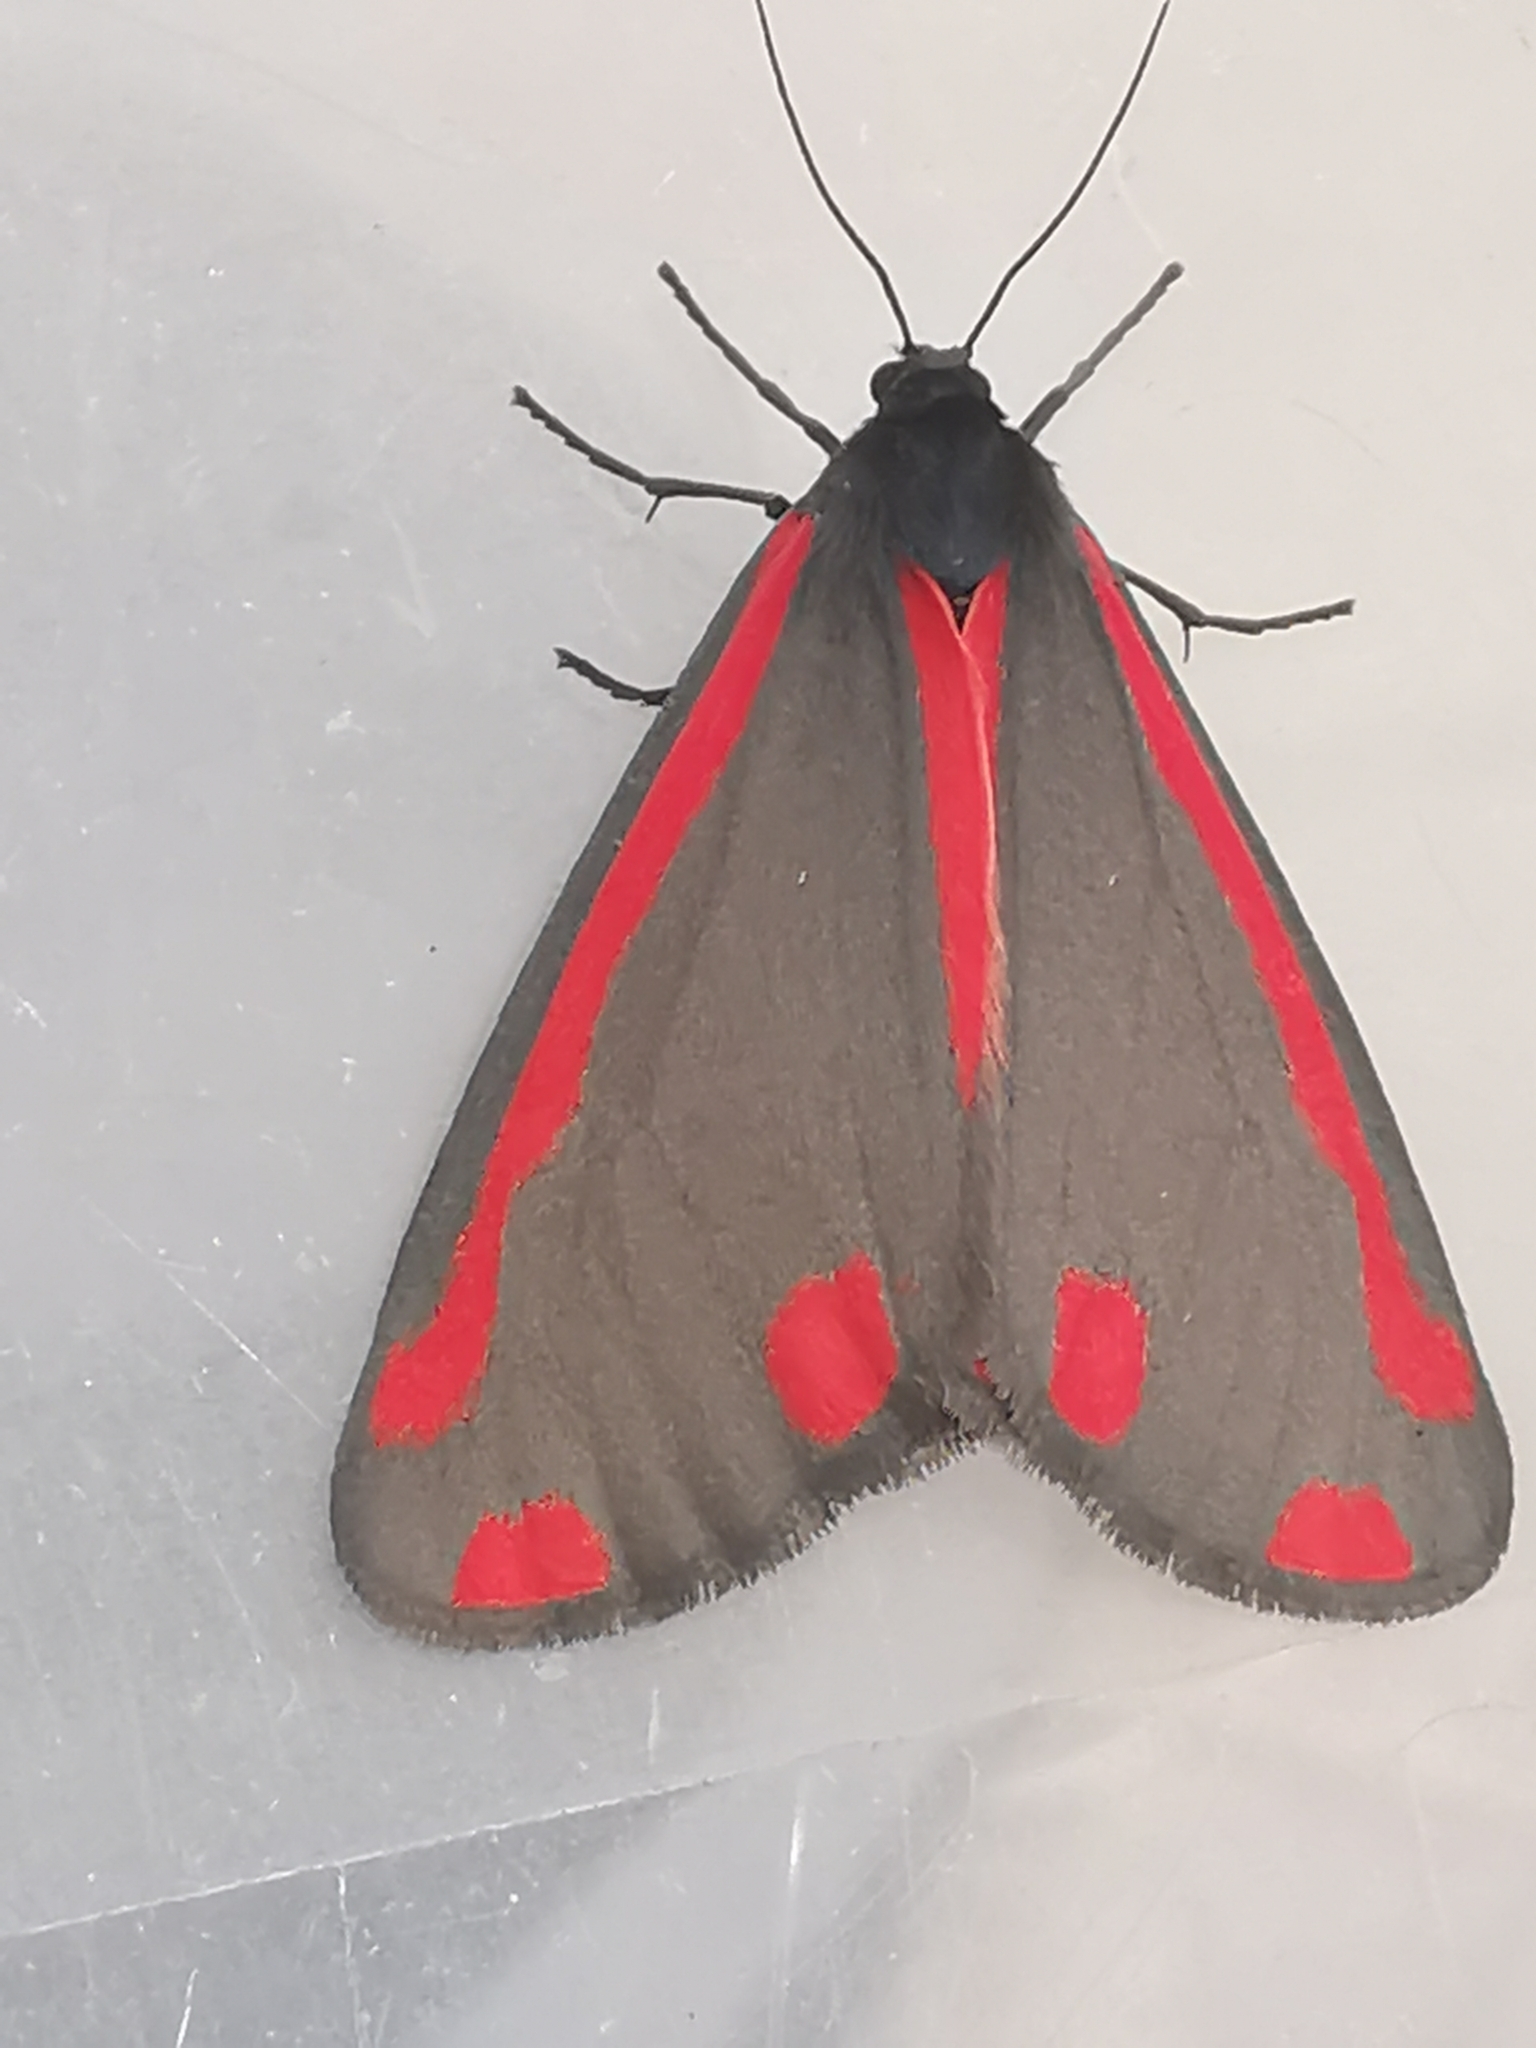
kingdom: Animalia
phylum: Arthropoda
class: Insecta
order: Lepidoptera
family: Erebidae
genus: Tyria
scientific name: Tyria jacobaeae
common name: Cinnabar
